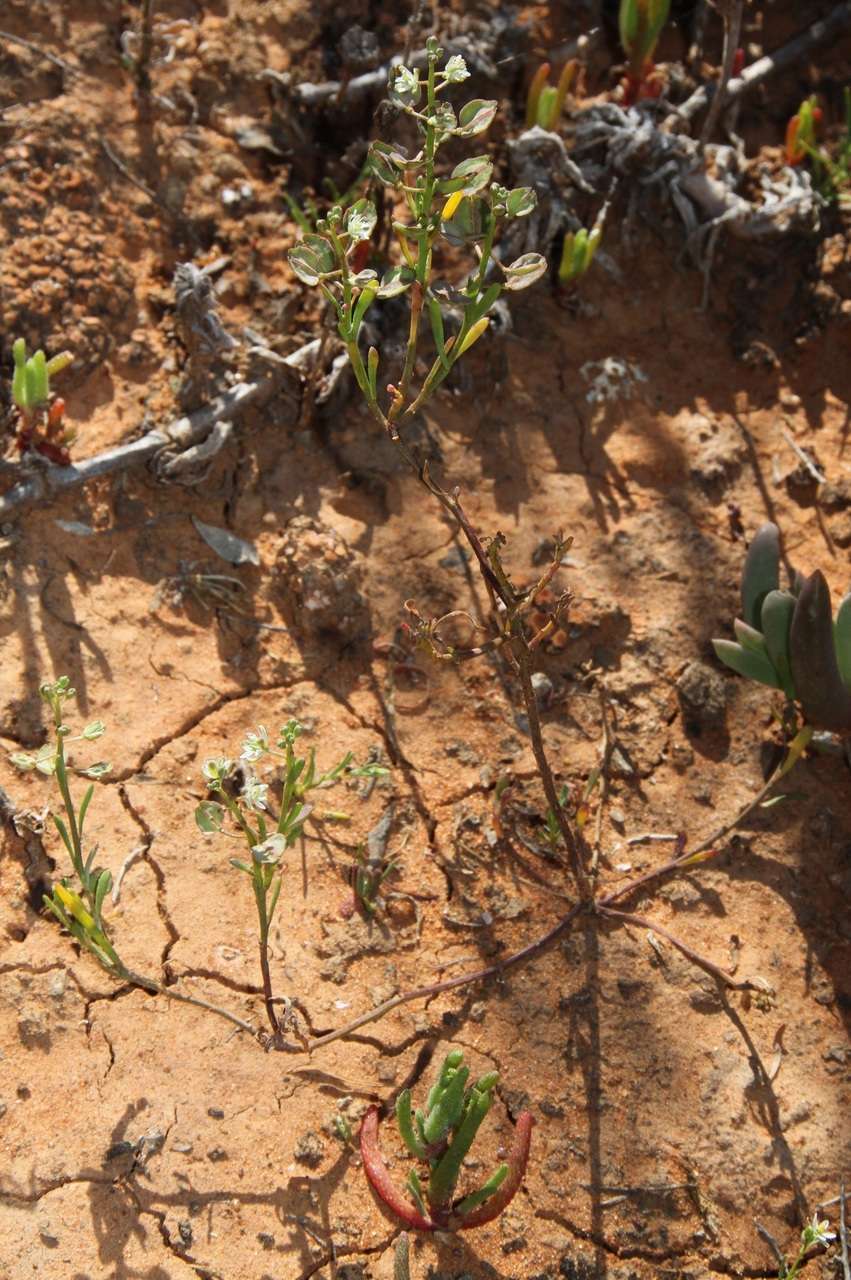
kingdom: Plantae
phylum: Tracheophyta
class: Magnoliopsida
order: Brassicales
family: Brassicaceae
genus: Lepidium
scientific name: Lepidium phlebopetalum
